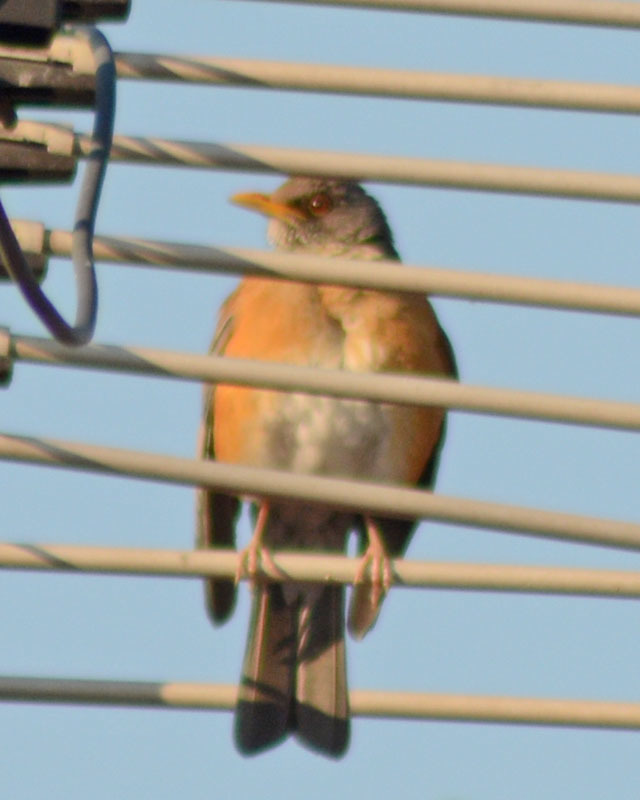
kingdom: Animalia
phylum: Chordata
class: Aves
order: Passeriformes
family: Turdidae
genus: Turdus
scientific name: Turdus rufopalliatus
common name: Rufous-backed robin
